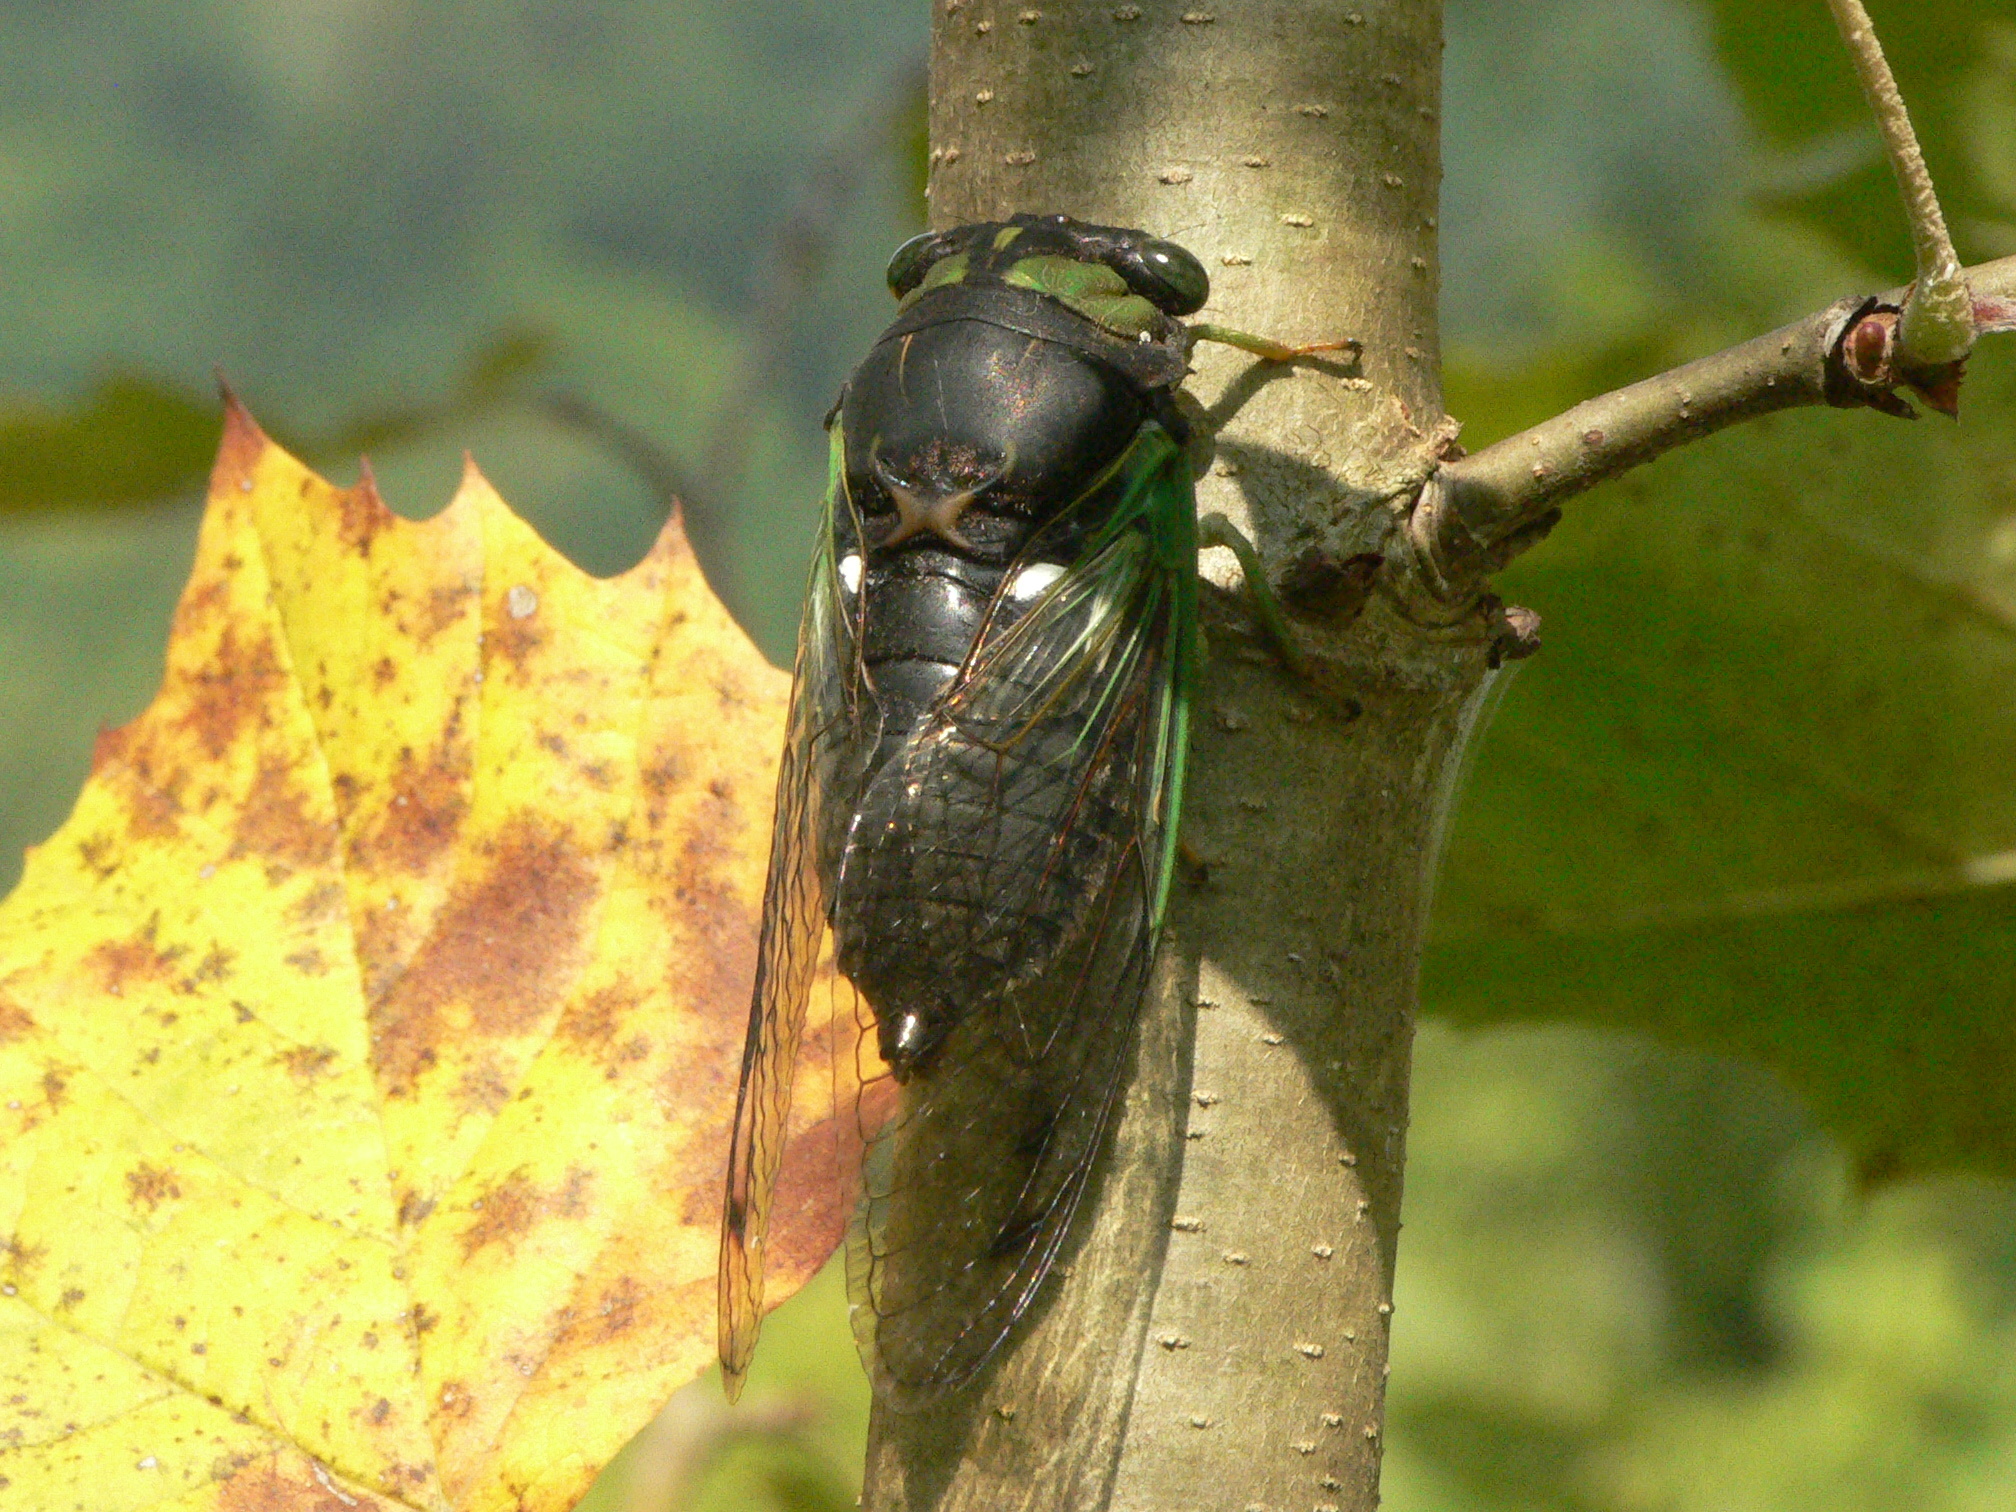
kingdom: Animalia
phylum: Arthropoda
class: Insecta
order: Hemiptera
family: Cicadidae
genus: Neotibicen
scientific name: Neotibicen tibicen
